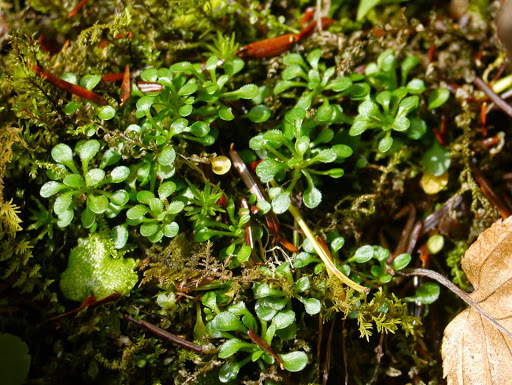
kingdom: Plantae
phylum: Tracheophyta
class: Magnoliopsida
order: Gentianales
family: Rubiaceae
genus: Houstonia
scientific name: Houstonia caerulea
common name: Bluets
